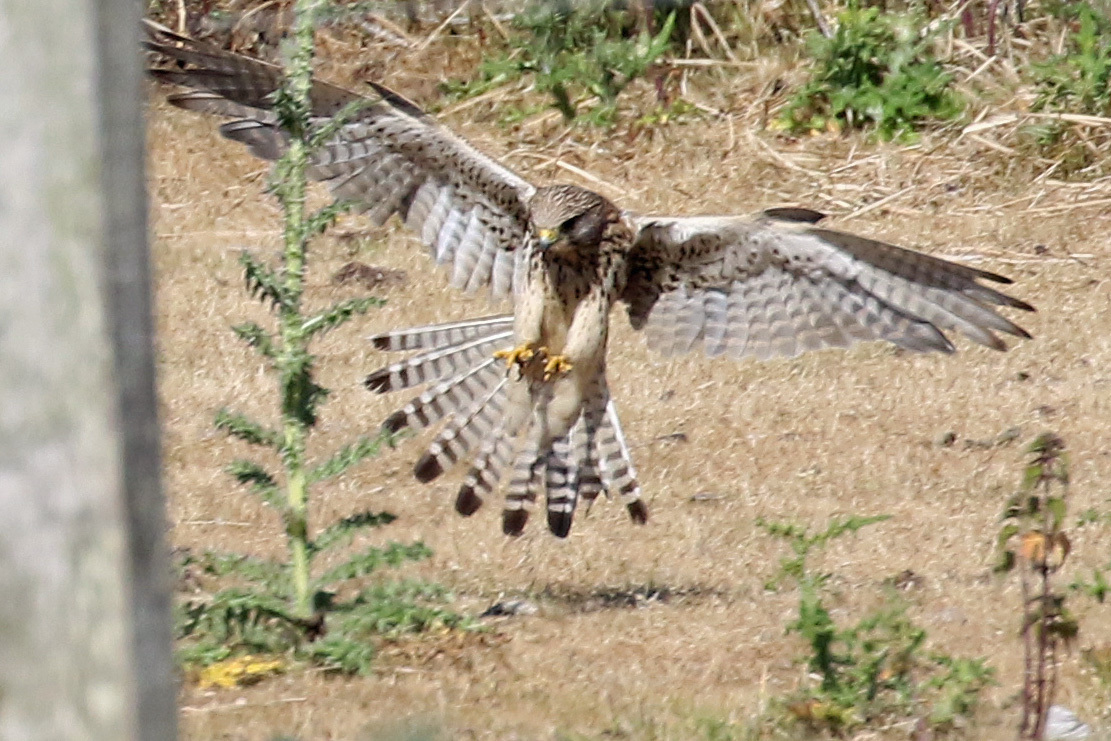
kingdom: Animalia
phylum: Chordata
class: Aves
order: Falconiformes
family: Falconidae
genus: Falco
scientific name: Falco tinnunculus
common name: Common kestrel
